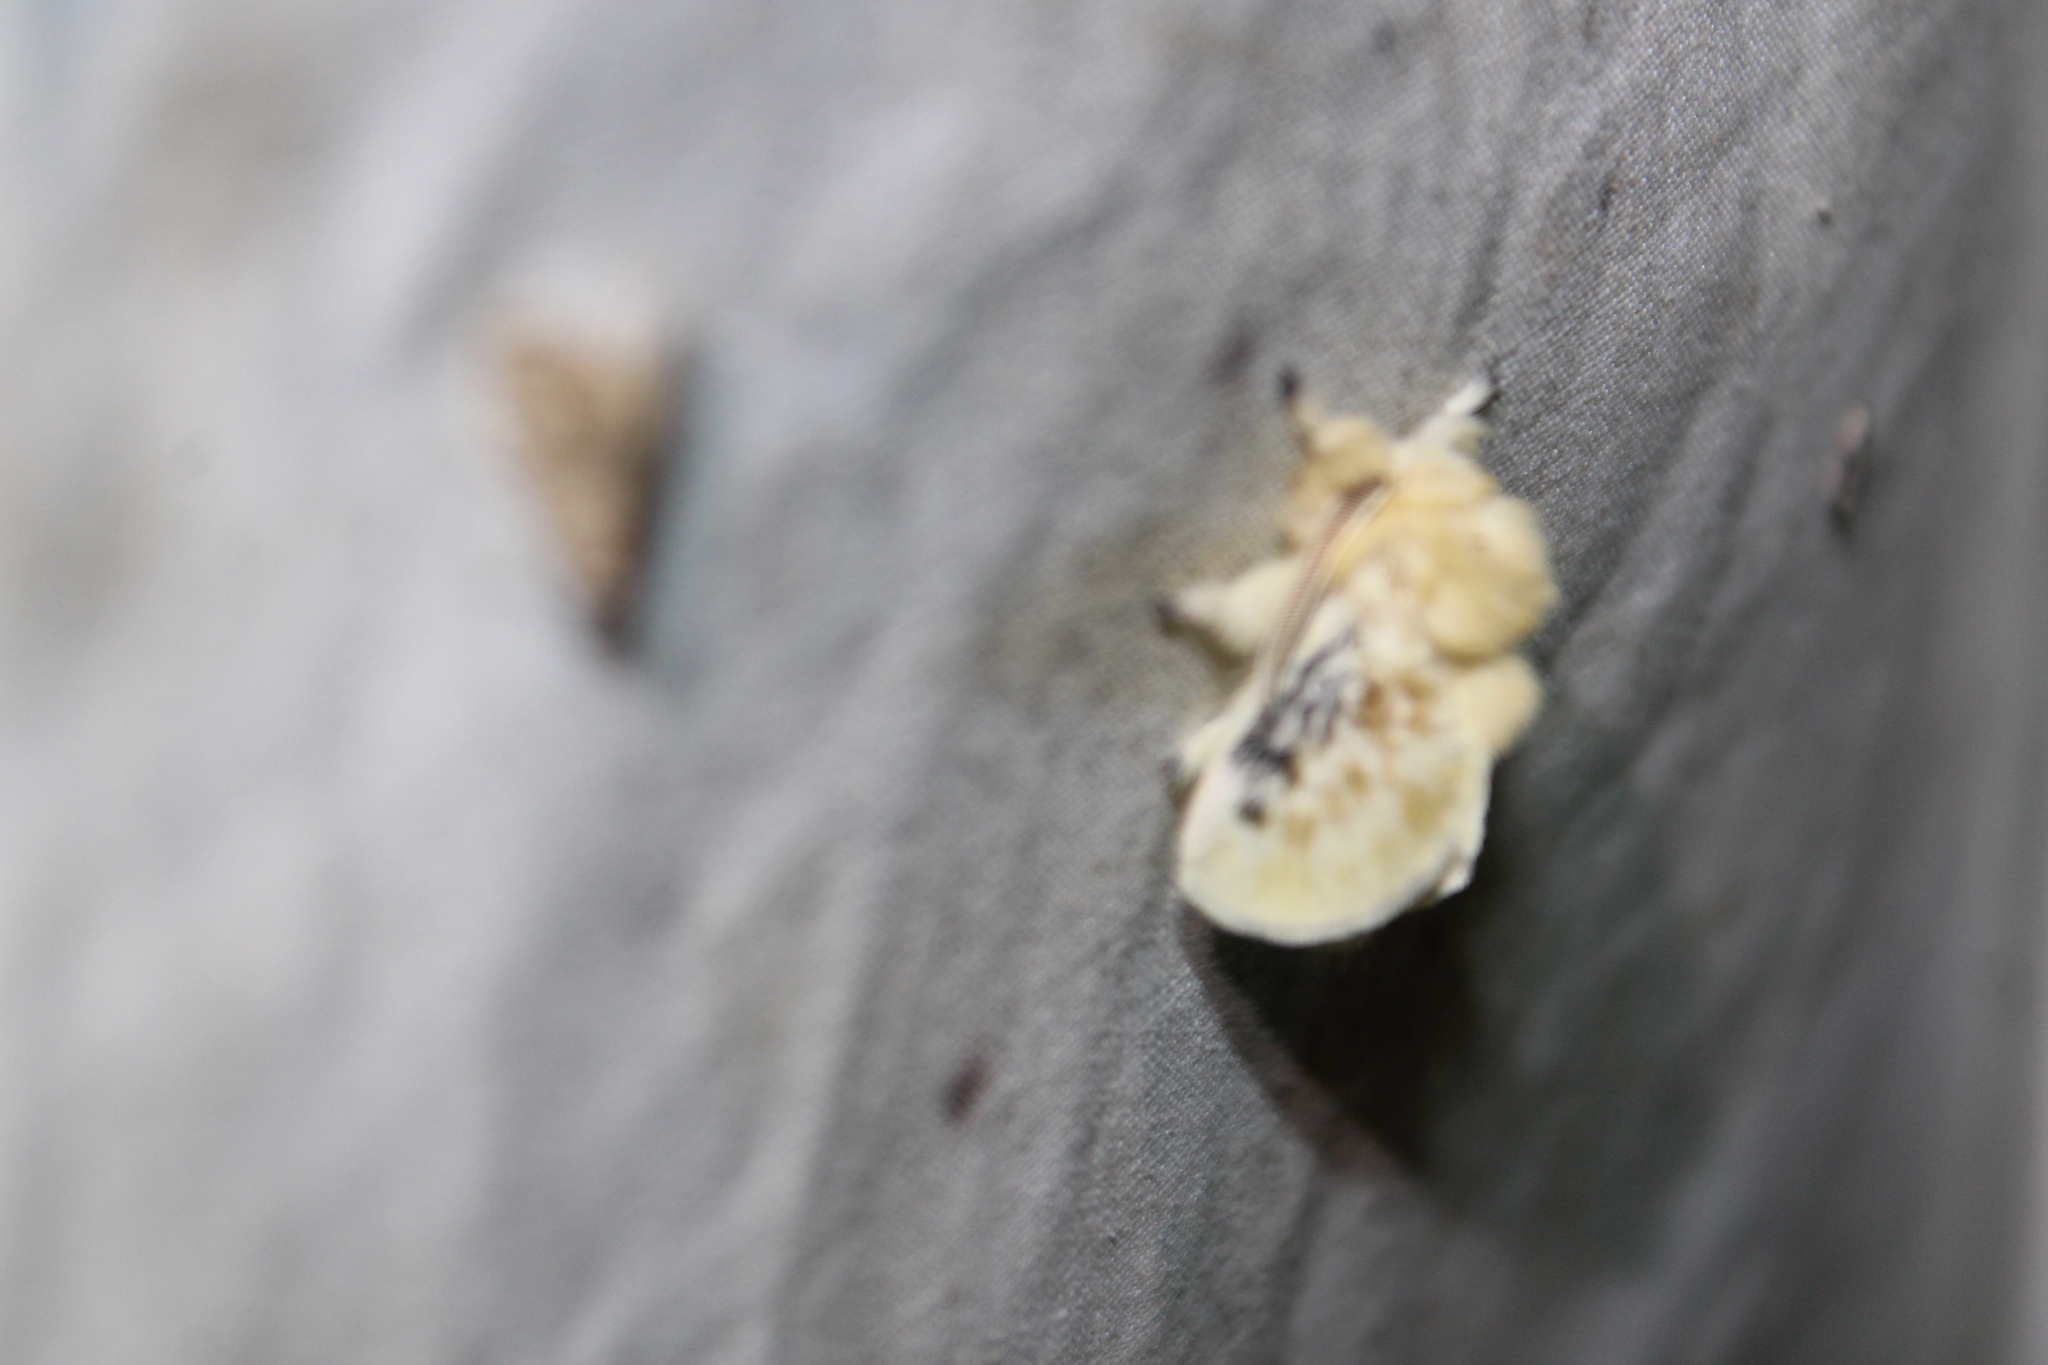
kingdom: Animalia
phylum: Arthropoda
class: Insecta
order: Lepidoptera
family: Megalopygidae
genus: Megalopyge
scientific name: Megalopyge crispata
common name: Black-waved flannel moth
